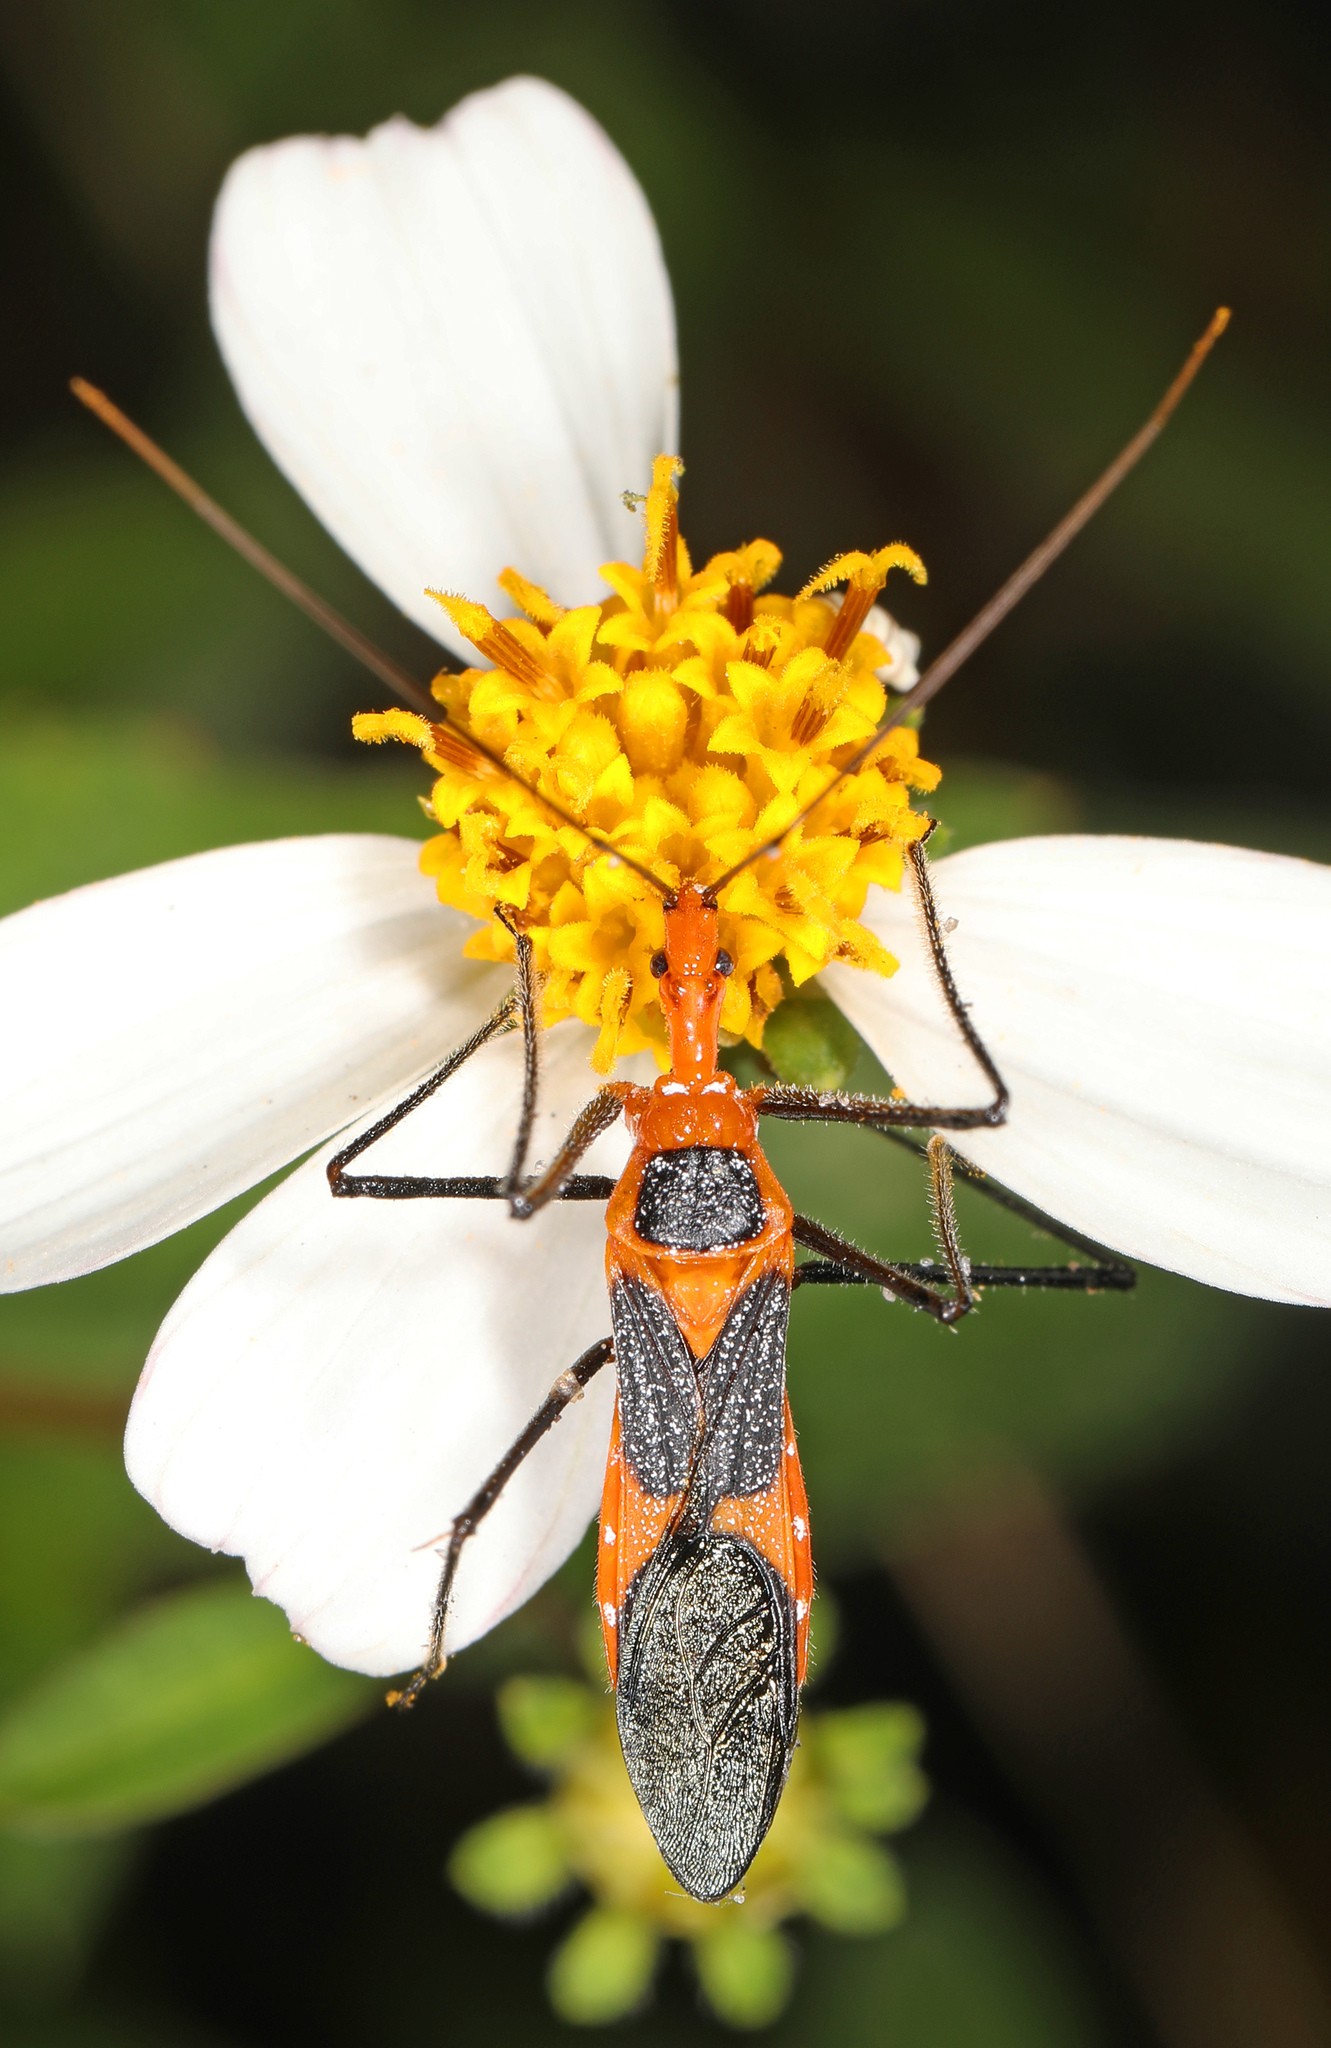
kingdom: Animalia
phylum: Arthropoda
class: Insecta
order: Hemiptera
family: Reduviidae
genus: Zelus
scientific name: Zelus longipes
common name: Milkweed assassin bug
